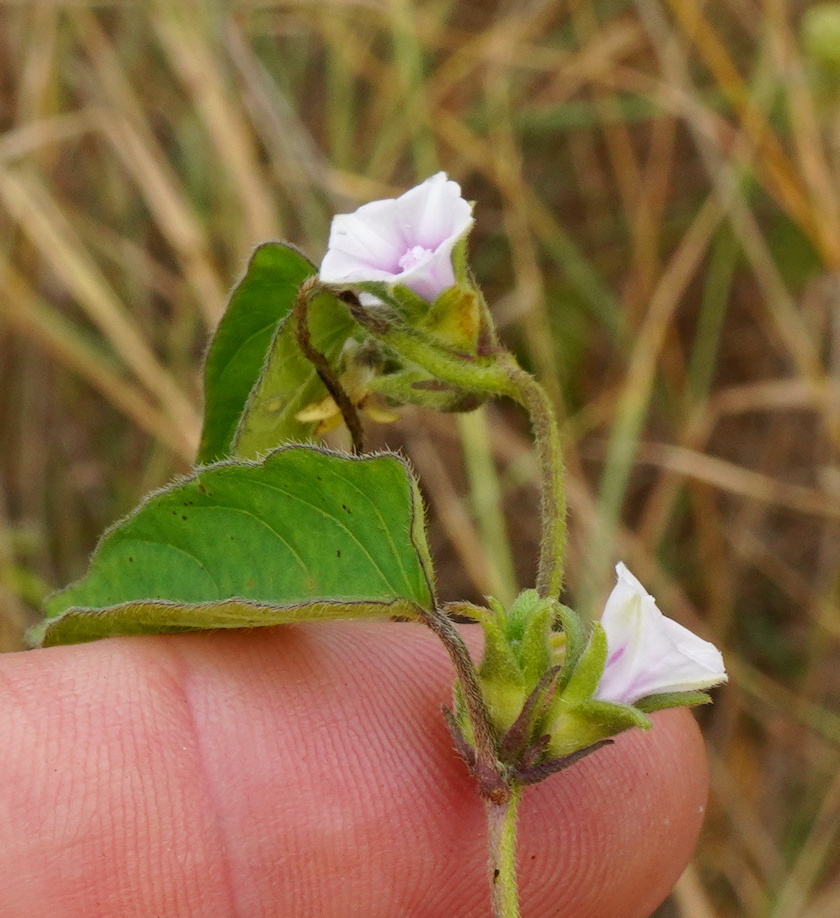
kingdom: Plantae
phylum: Tracheophyta
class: Magnoliopsida
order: Solanales
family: Convolvulaceae
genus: Ipomoea
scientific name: Ipomoea gracilisepala
